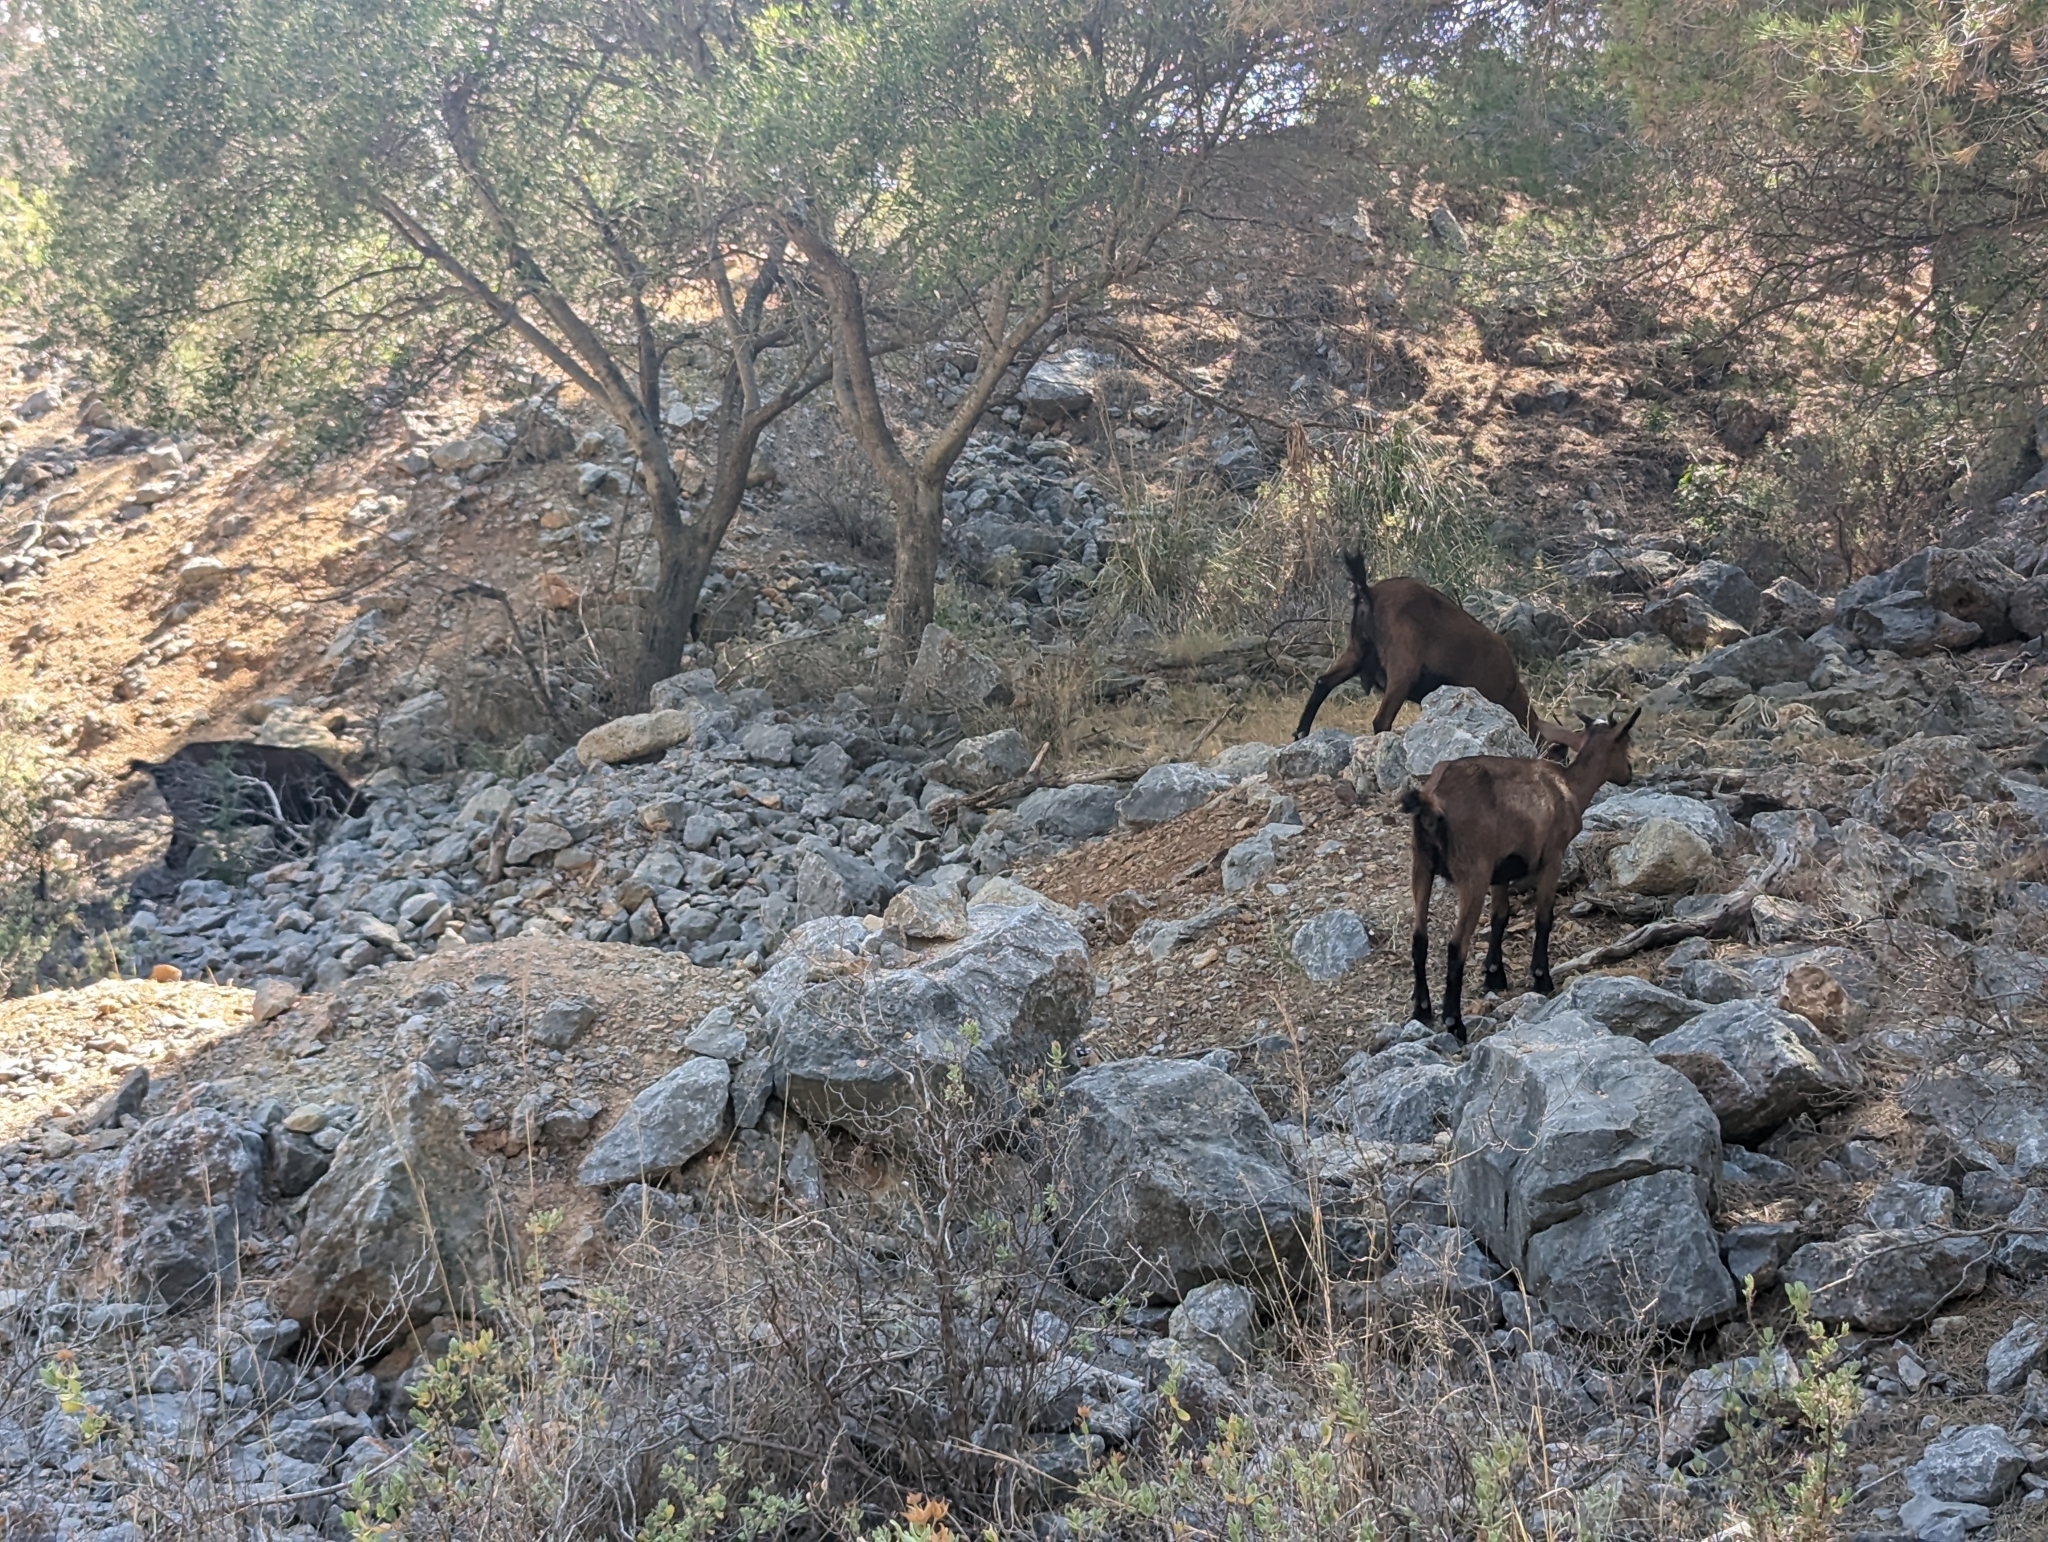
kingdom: Animalia
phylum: Chordata
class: Mammalia
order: Artiodactyla
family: Bovidae
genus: Capra
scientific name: Capra hircus
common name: Domestic goat
